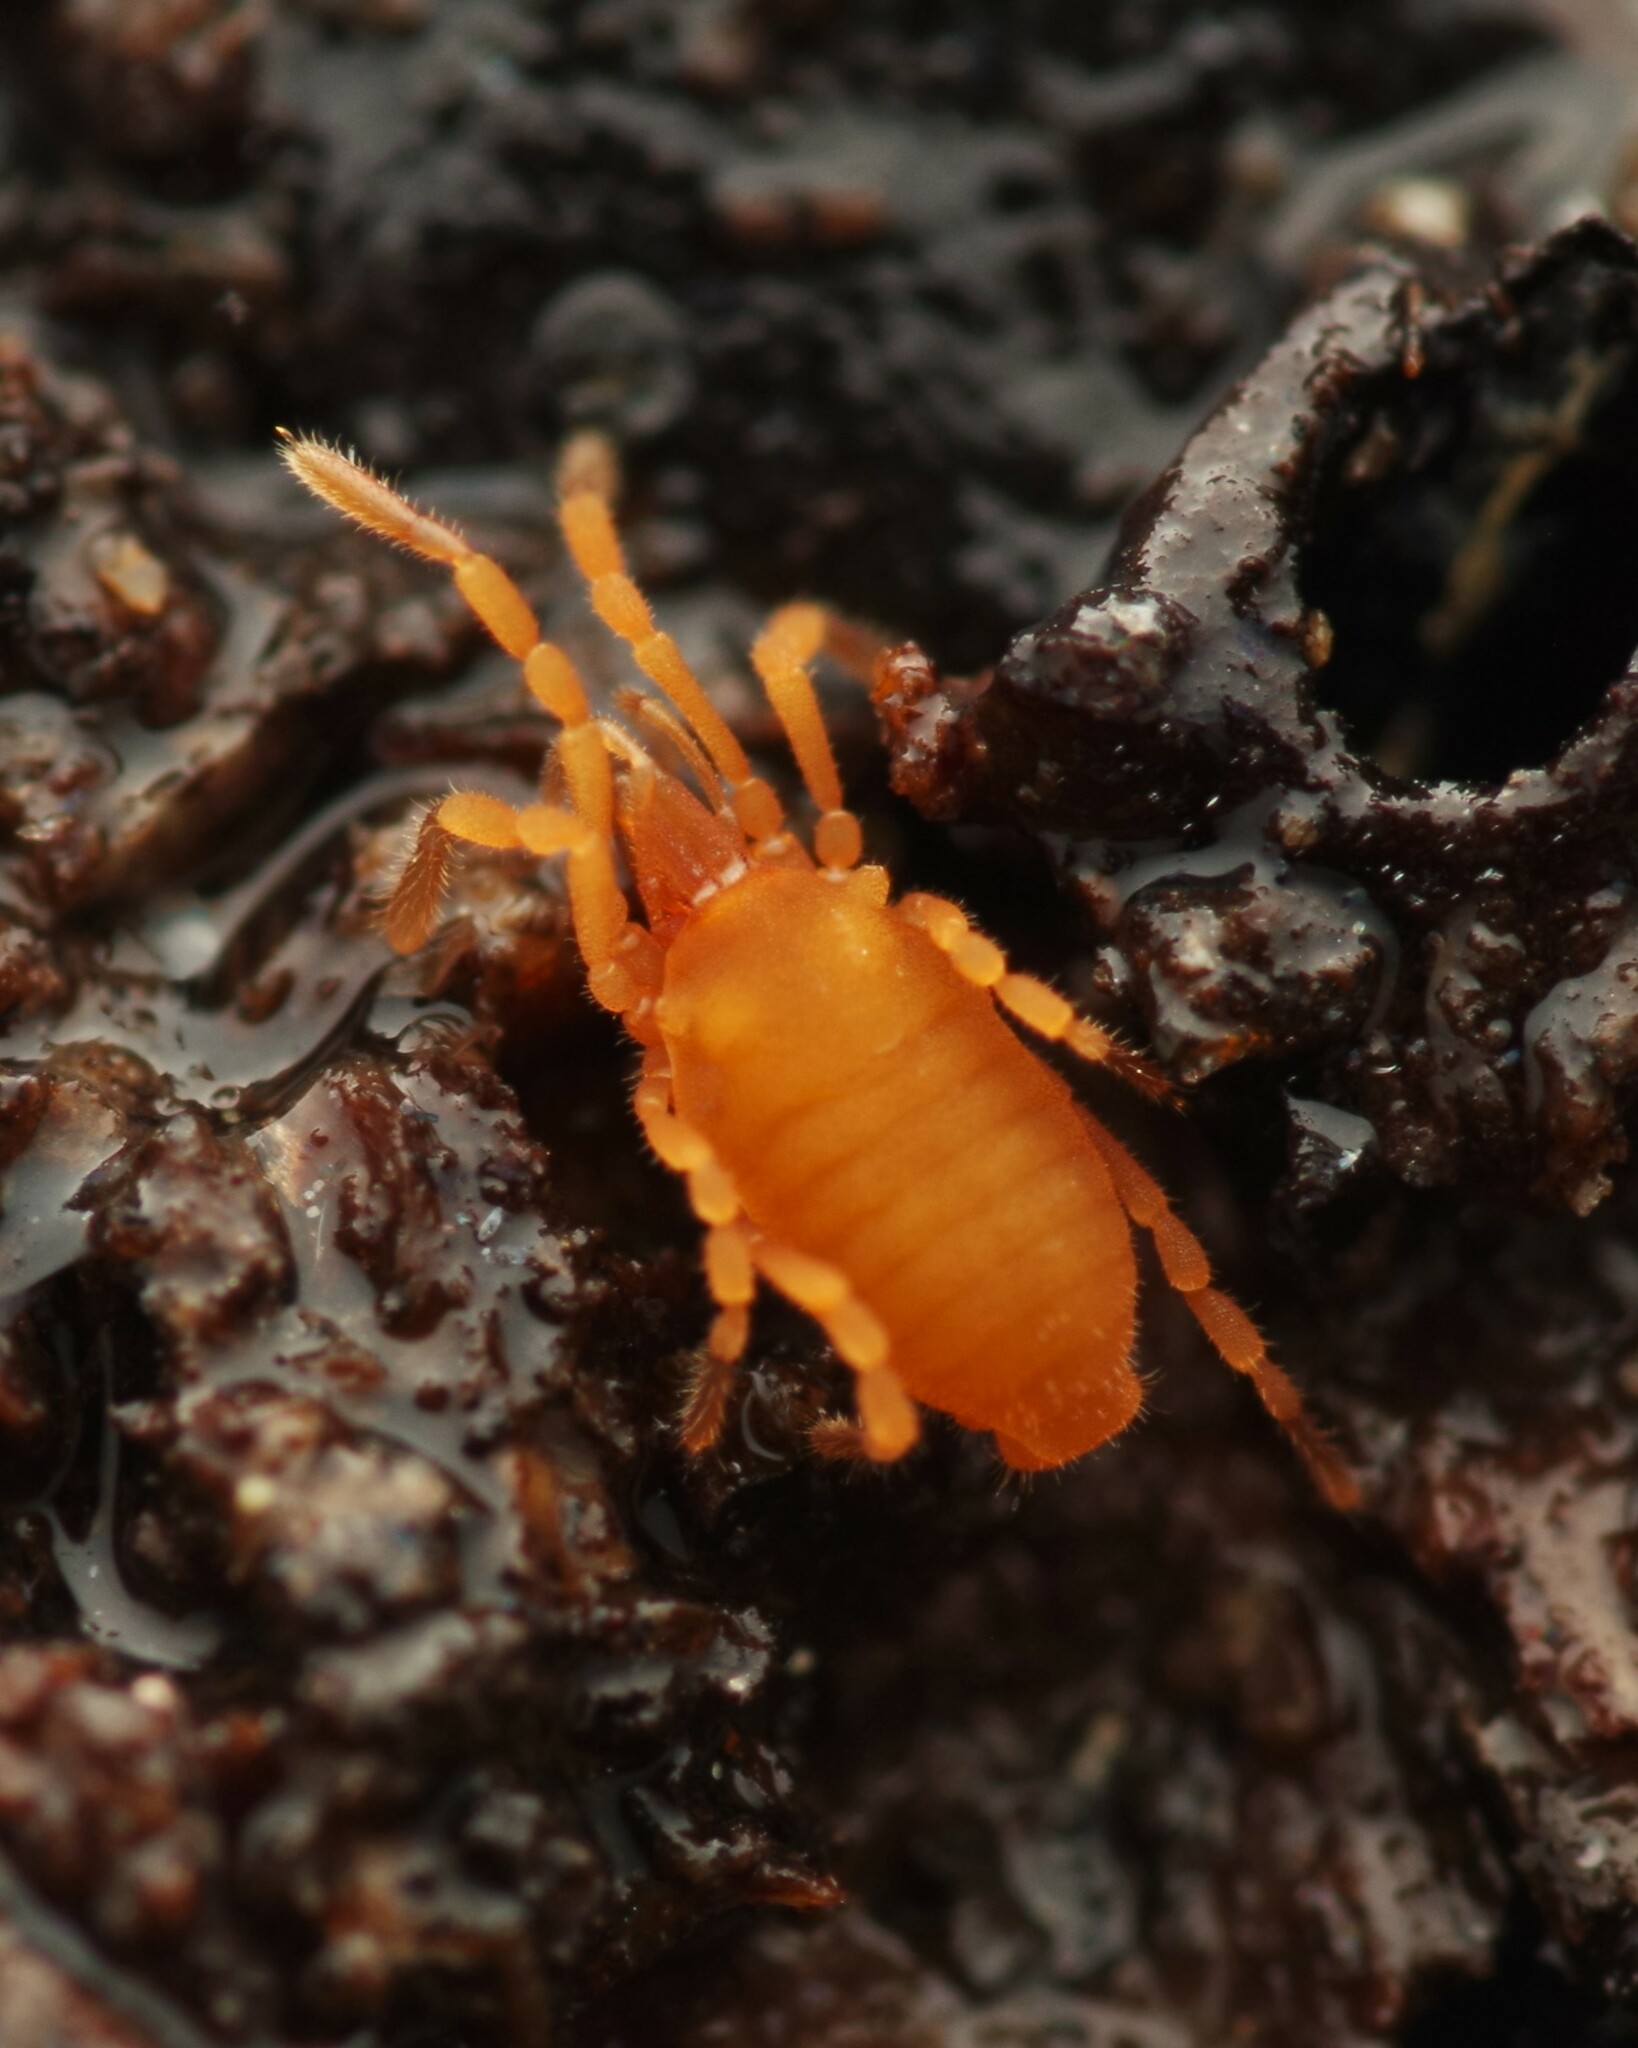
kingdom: Animalia
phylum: Arthropoda
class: Arachnida
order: Opiliones
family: Sironidae
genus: Siro
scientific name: Siro rubens
